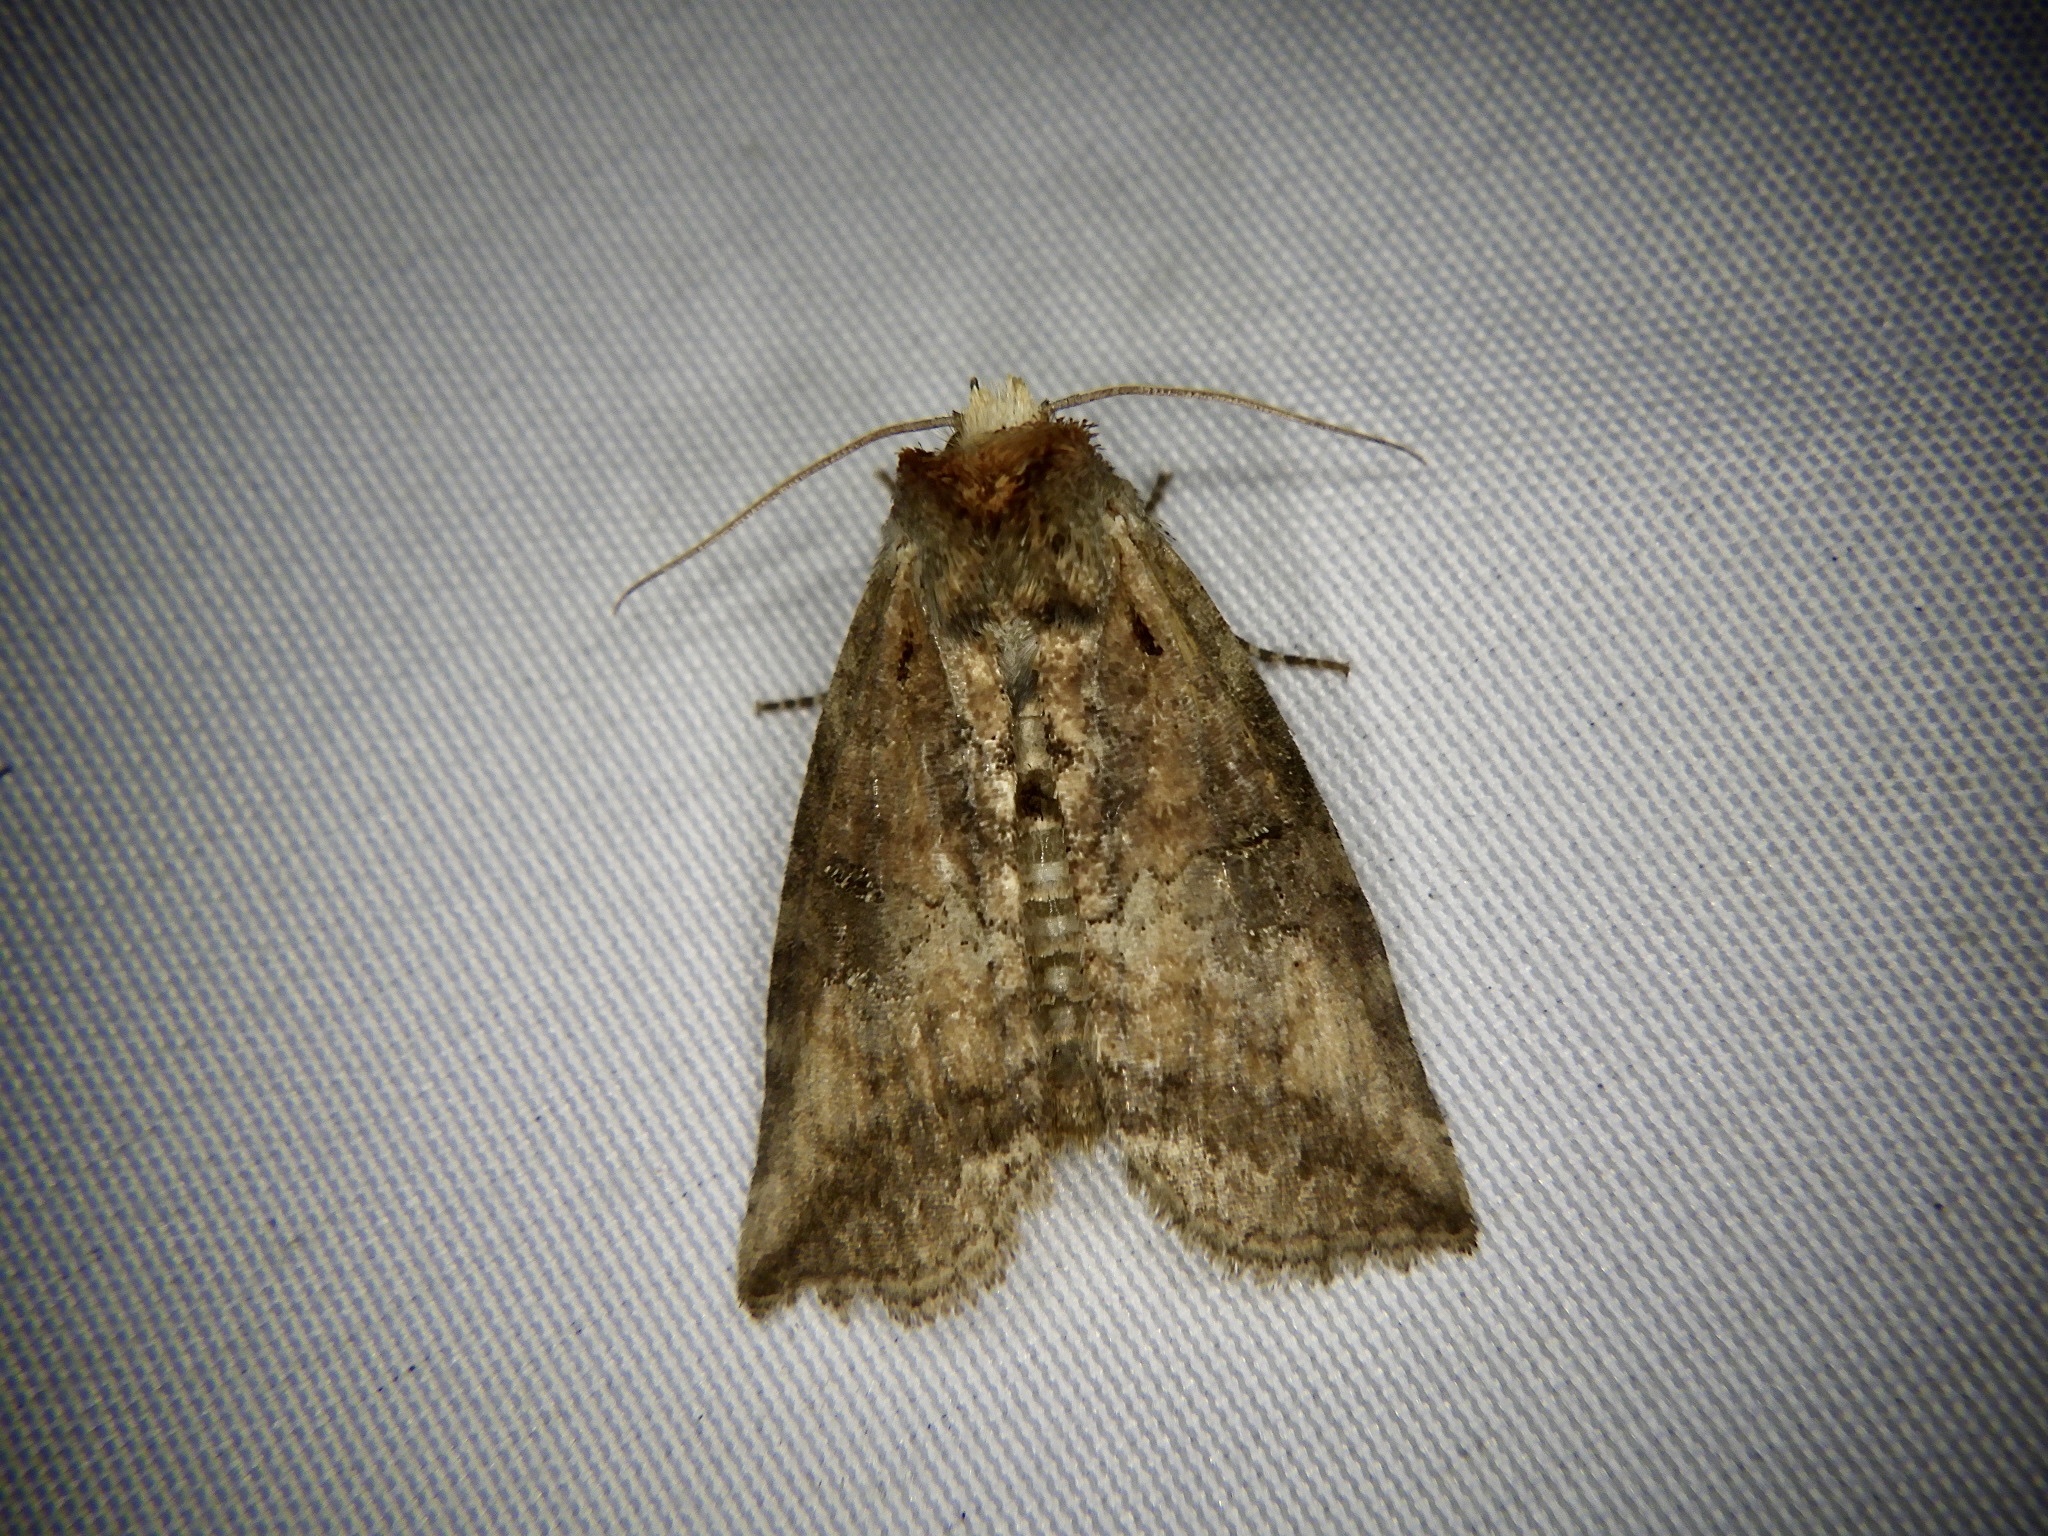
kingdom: Animalia
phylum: Arthropoda
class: Insecta
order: Lepidoptera
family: Drepanidae
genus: Epipsestis
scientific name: Epipsestis nikkoensis
